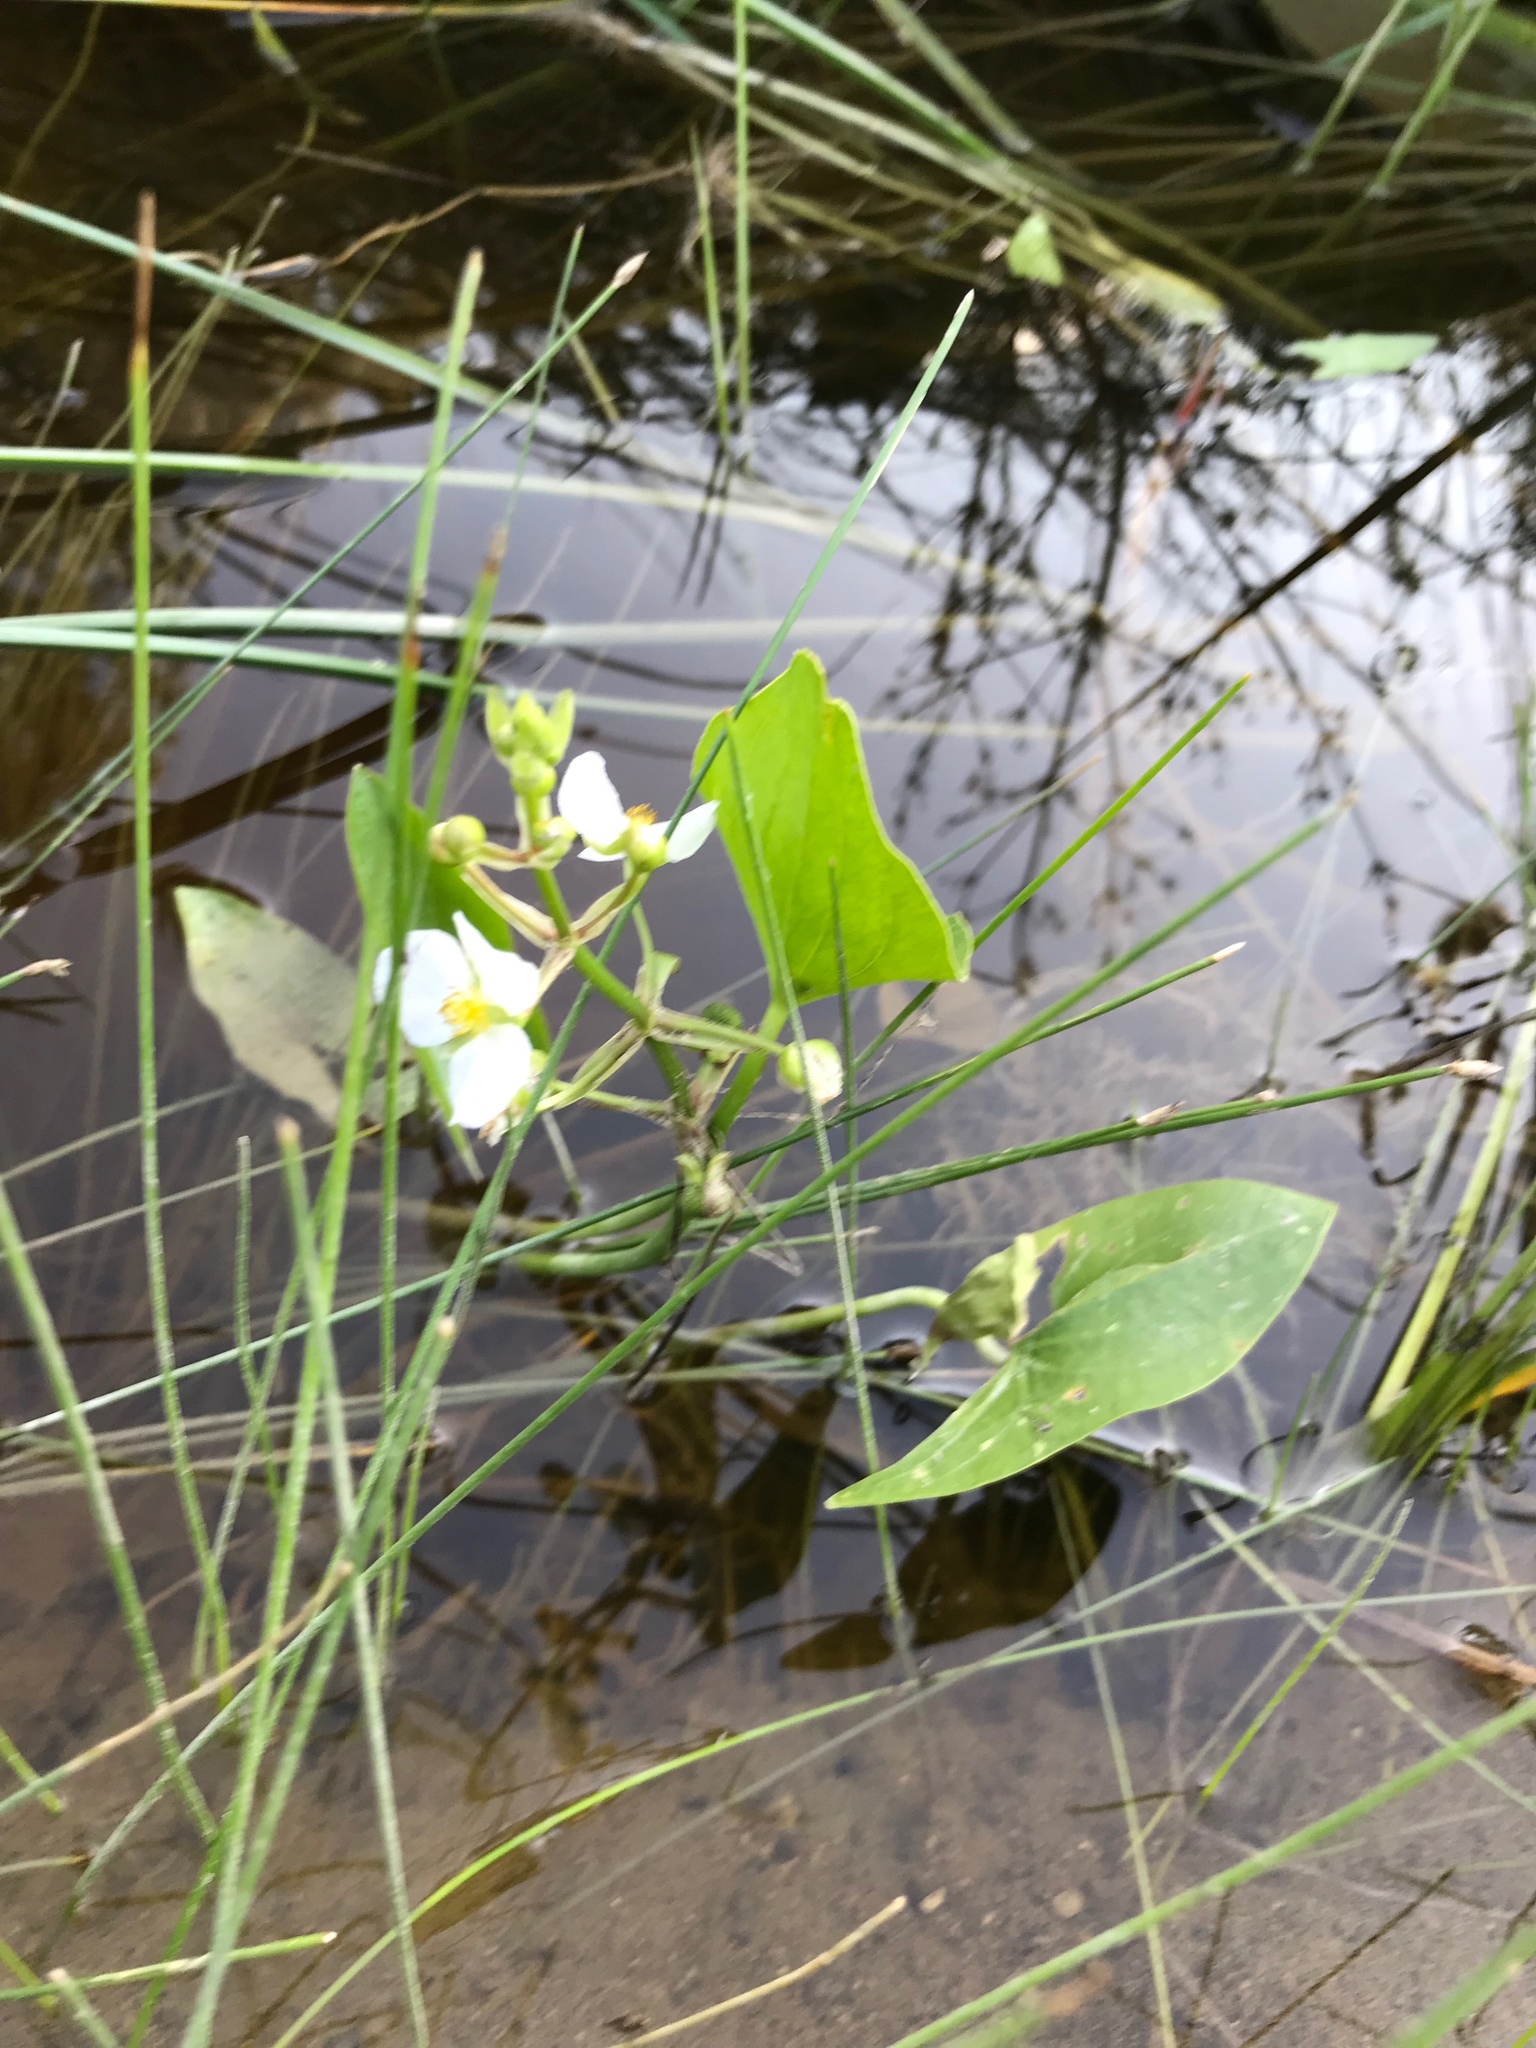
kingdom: Plantae
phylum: Tracheophyta
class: Liliopsida
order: Alismatales
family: Alismataceae
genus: Sagittaria
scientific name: Sagittaria cuneata
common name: Northern arrowhead
